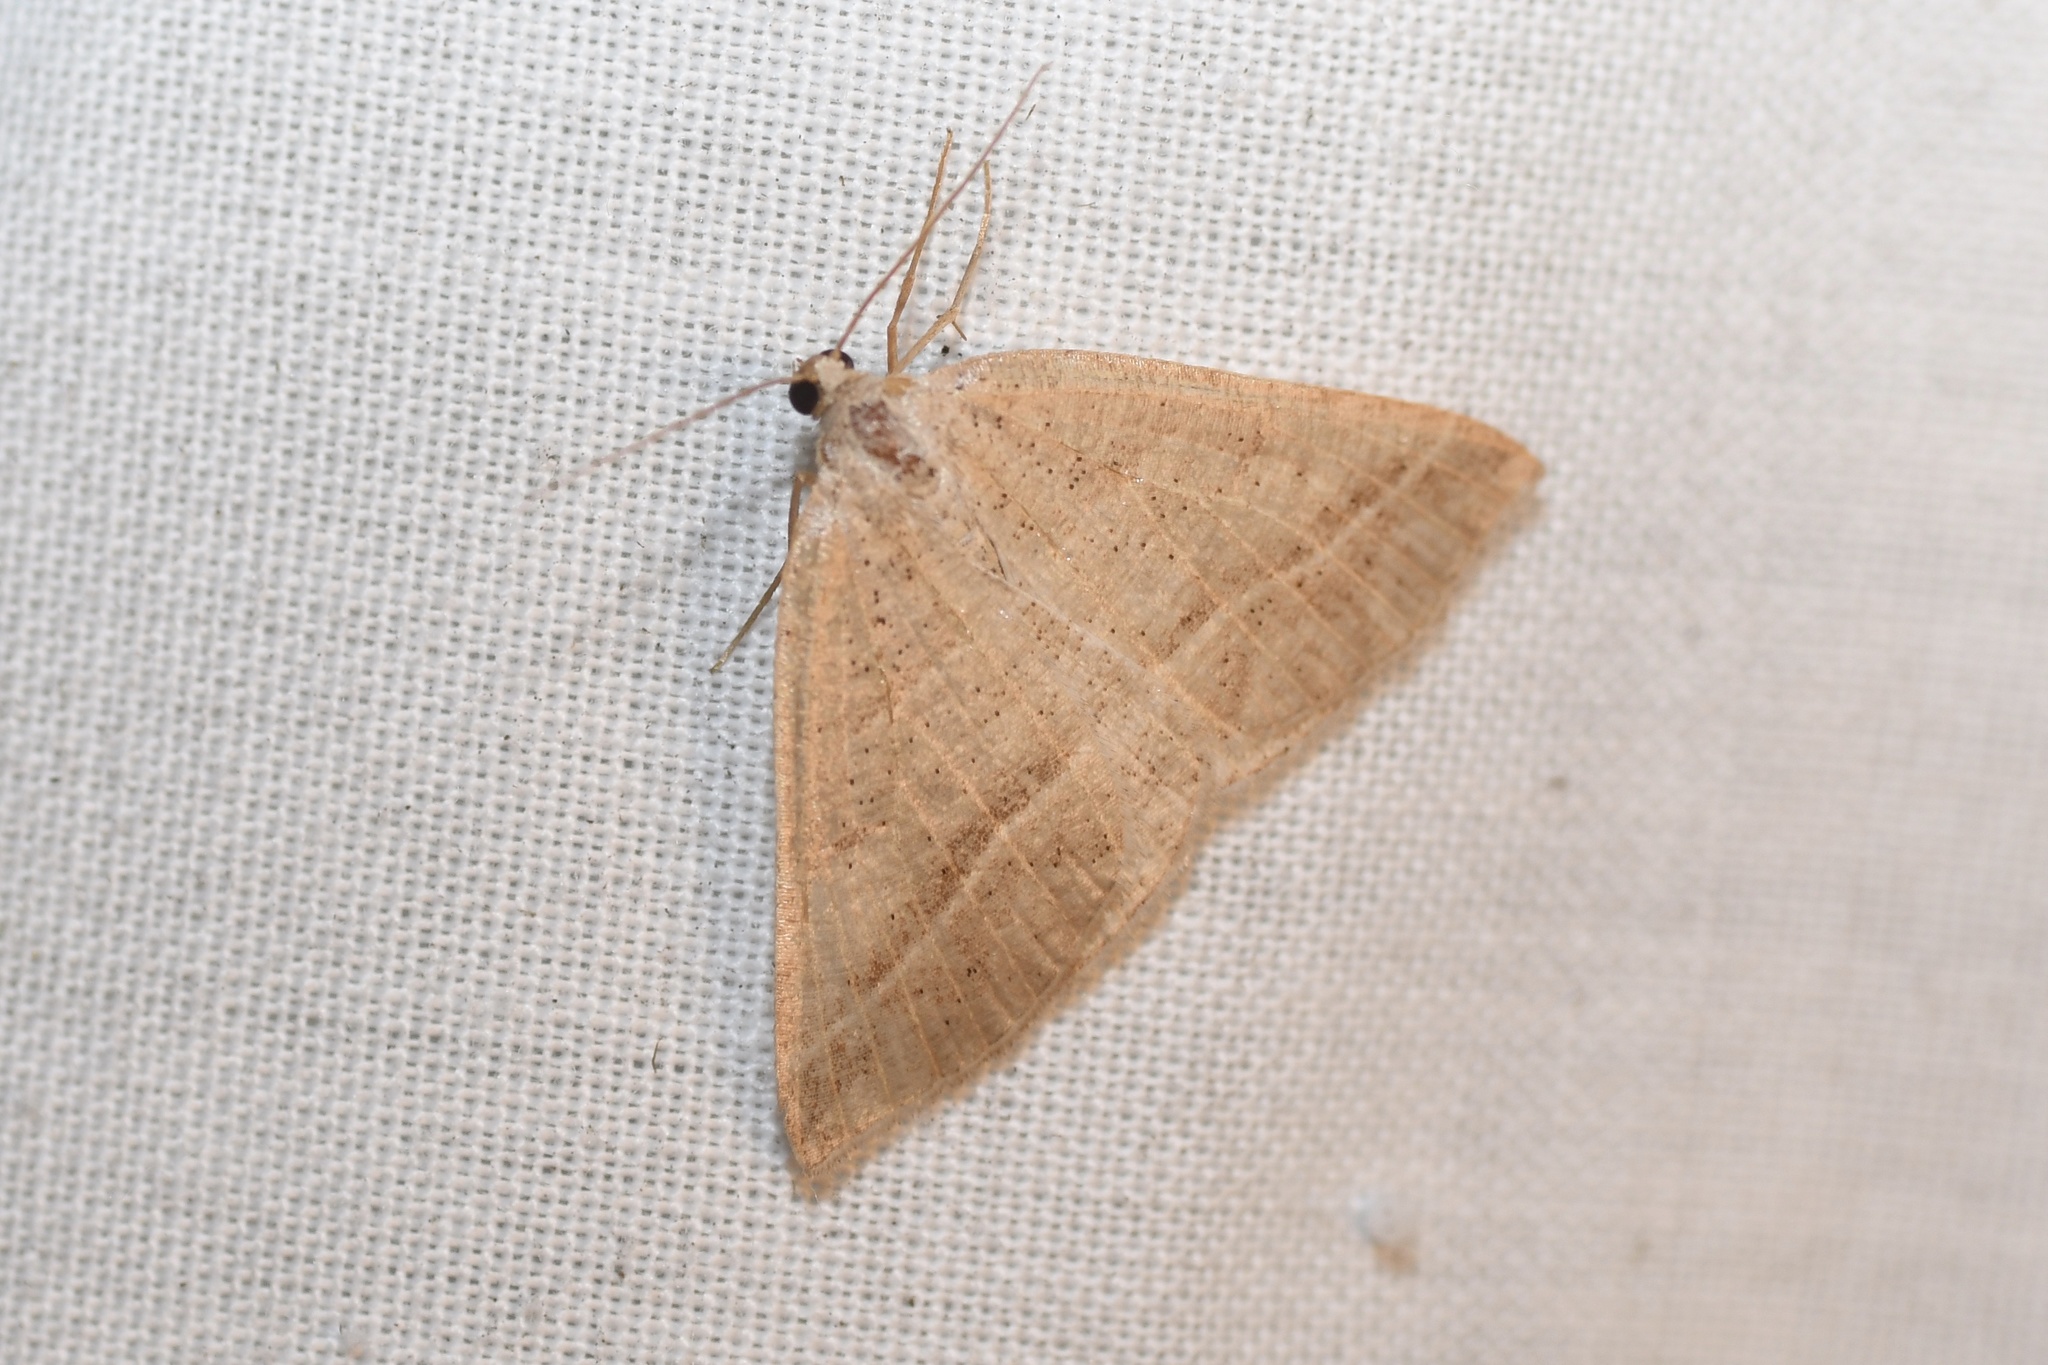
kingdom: Animalia
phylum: Arthropoda
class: Insecta
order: Lepidoptera
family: Pterophoridae
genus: Pterophorus
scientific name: Pterophorus Petrophora subaequaria
